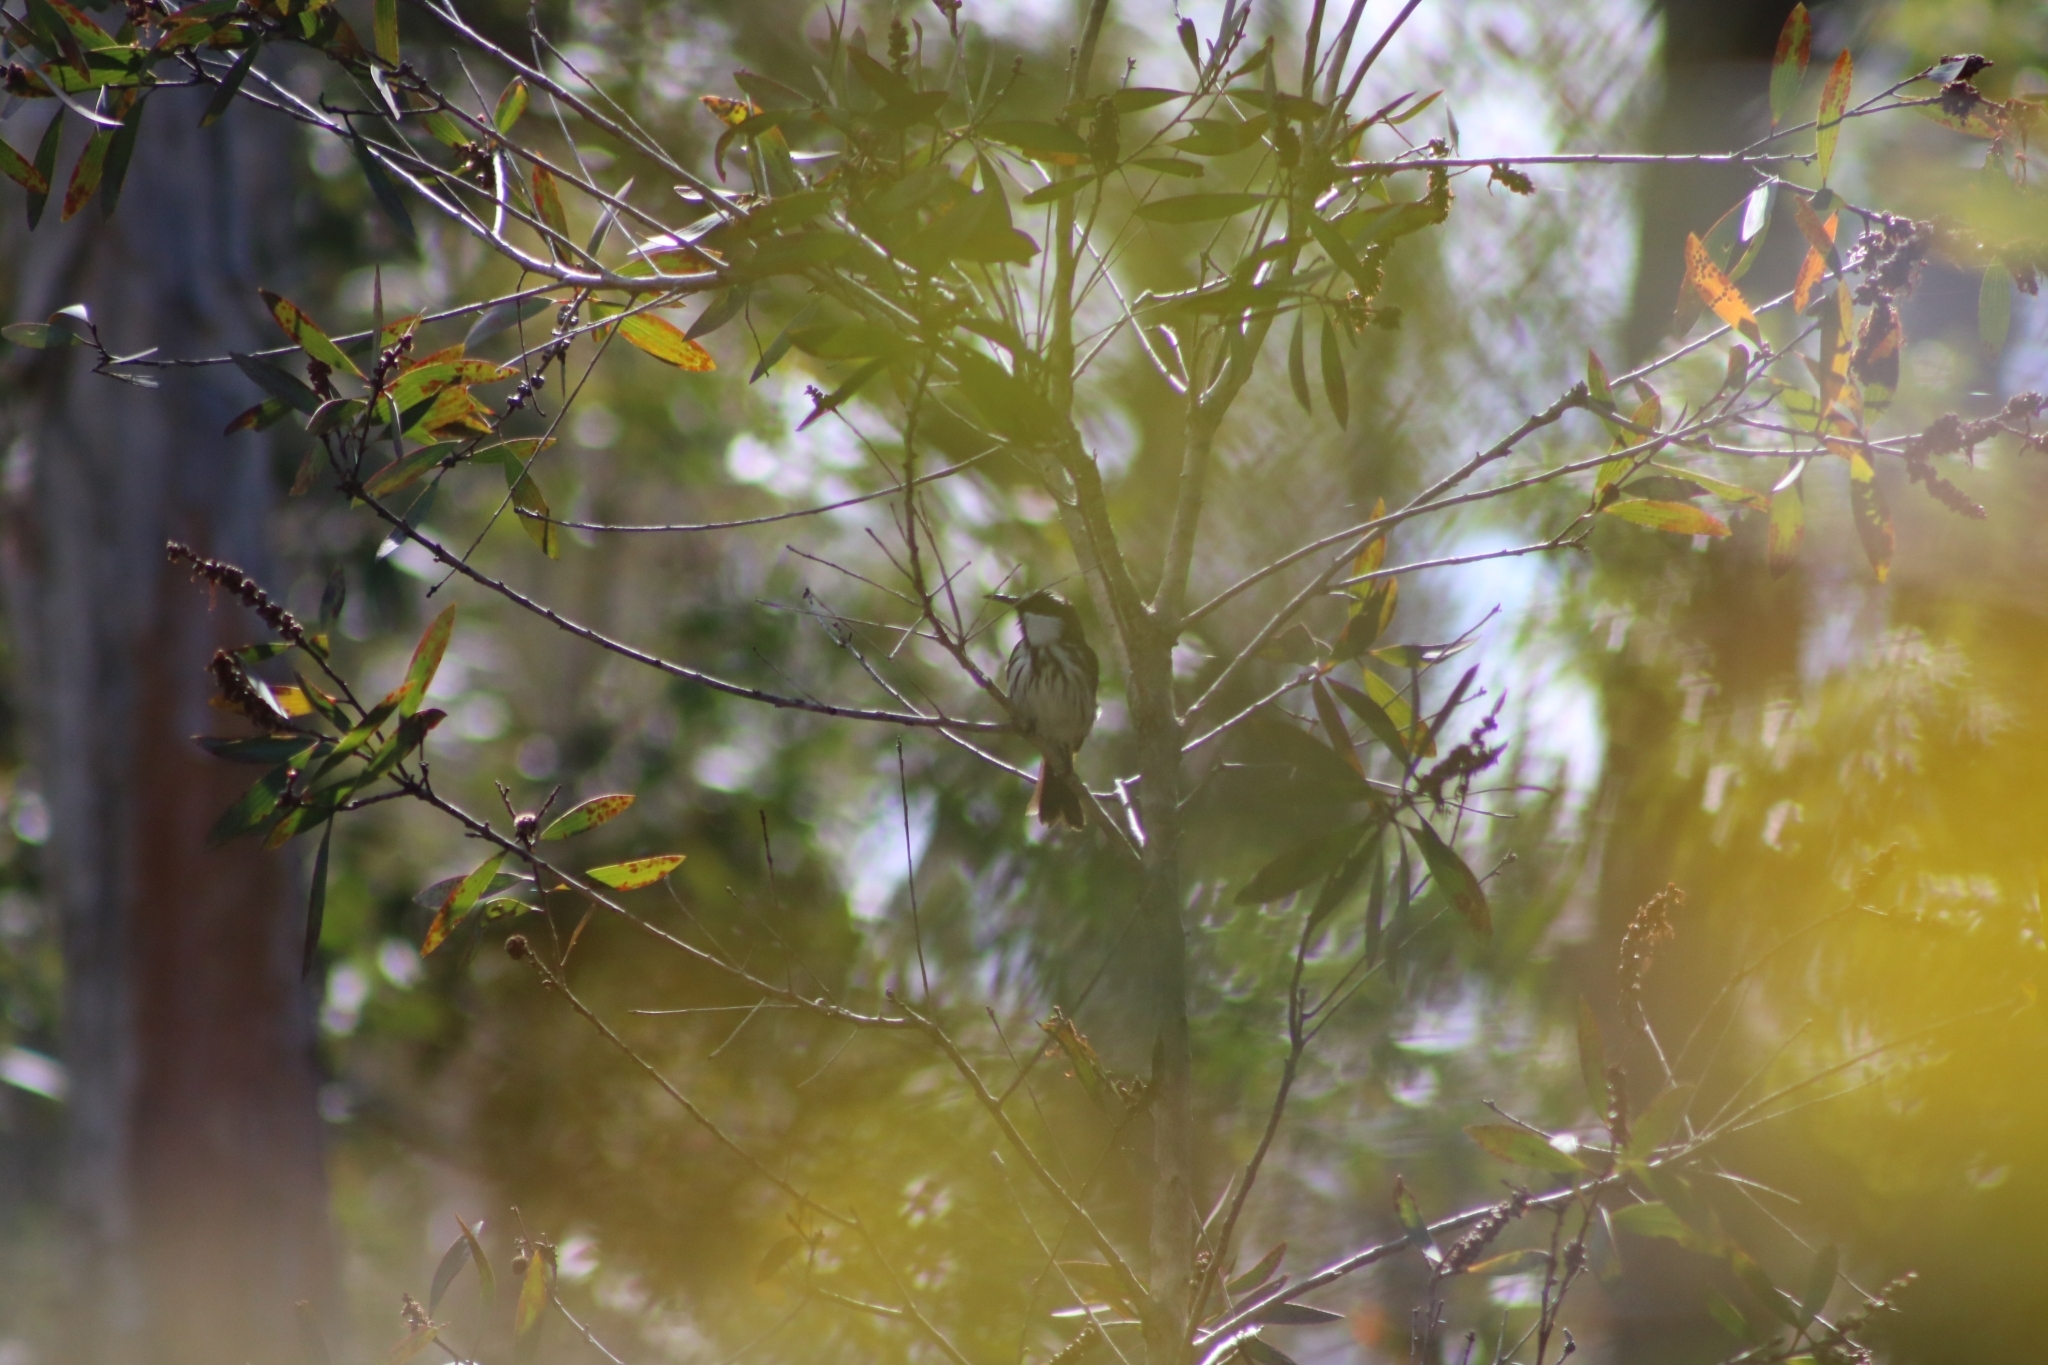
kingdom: Animalia
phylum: Chordata
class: Aves
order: Passeriformes
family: Meliphagidae
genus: Phylidonyris
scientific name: Phylidonyris niger
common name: White-cheeked honeyeater
